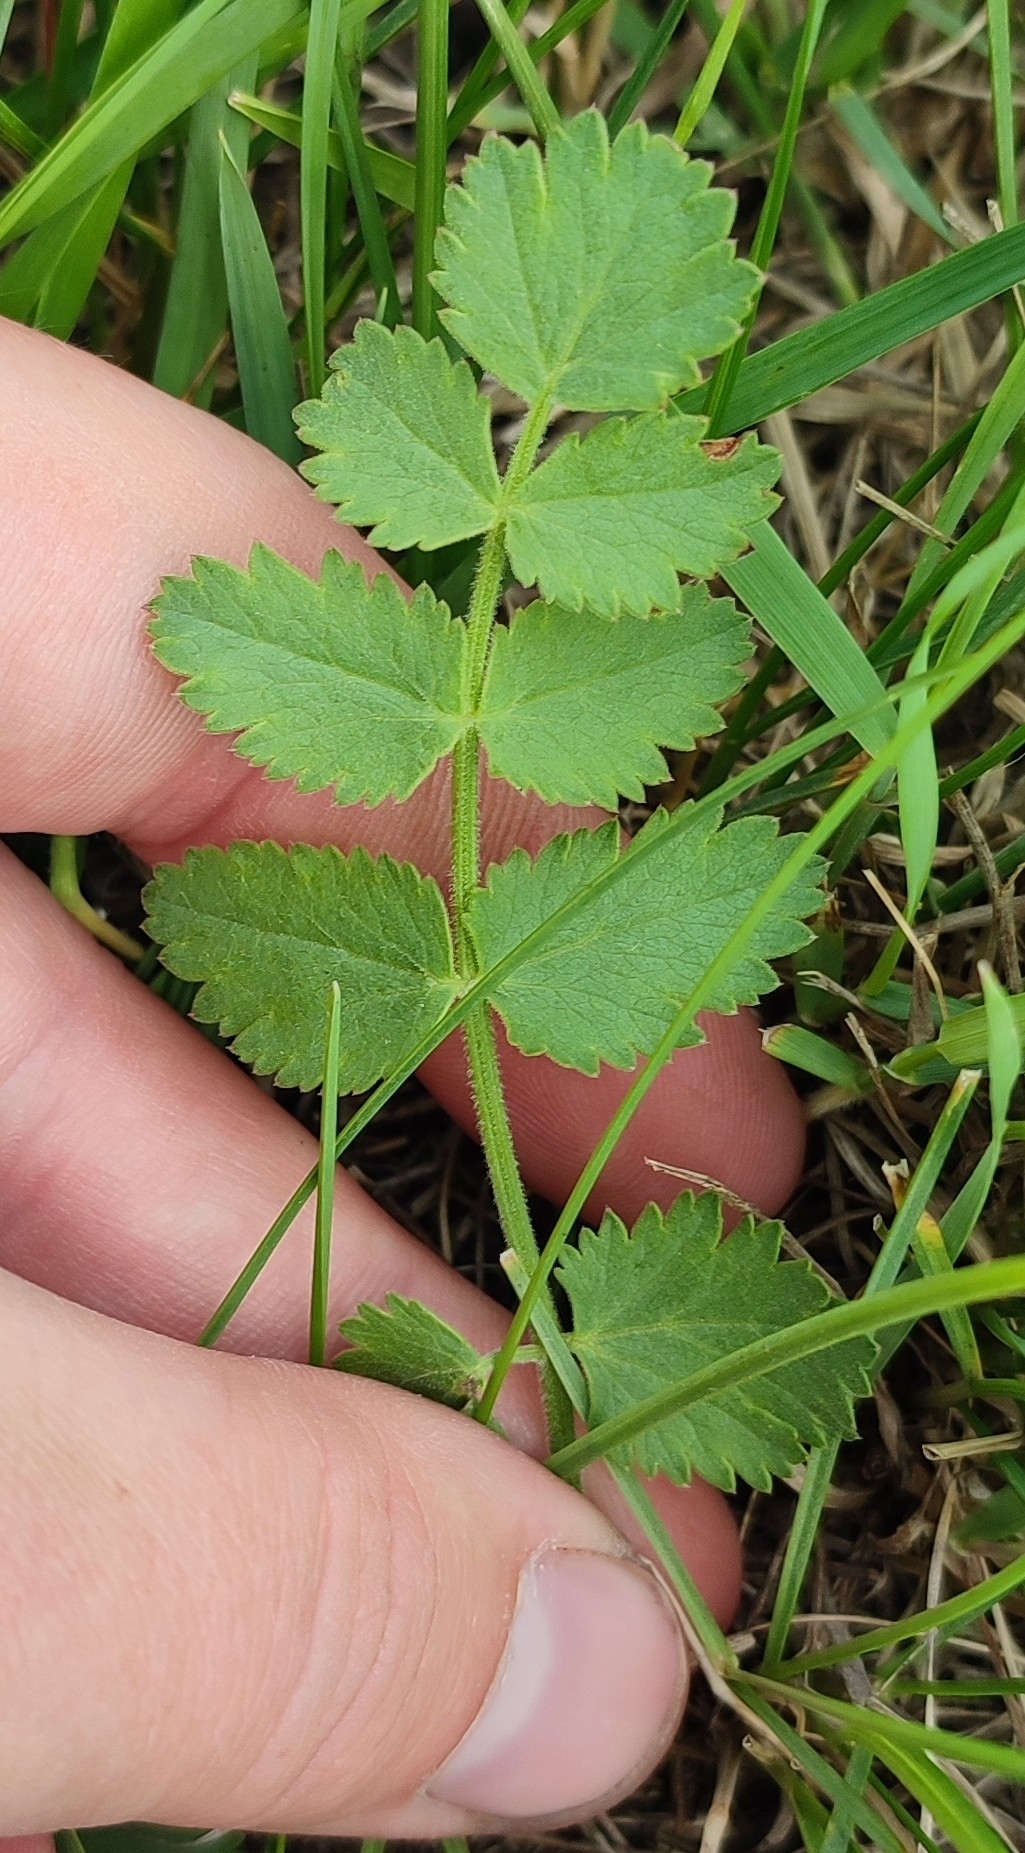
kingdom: Plantae
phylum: Tracheophyta
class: Magnoliopsida
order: Apiales
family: Apiaceae
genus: Pimpinella
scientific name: Pimpinella saxifraga
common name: Burnet-saxifrage
